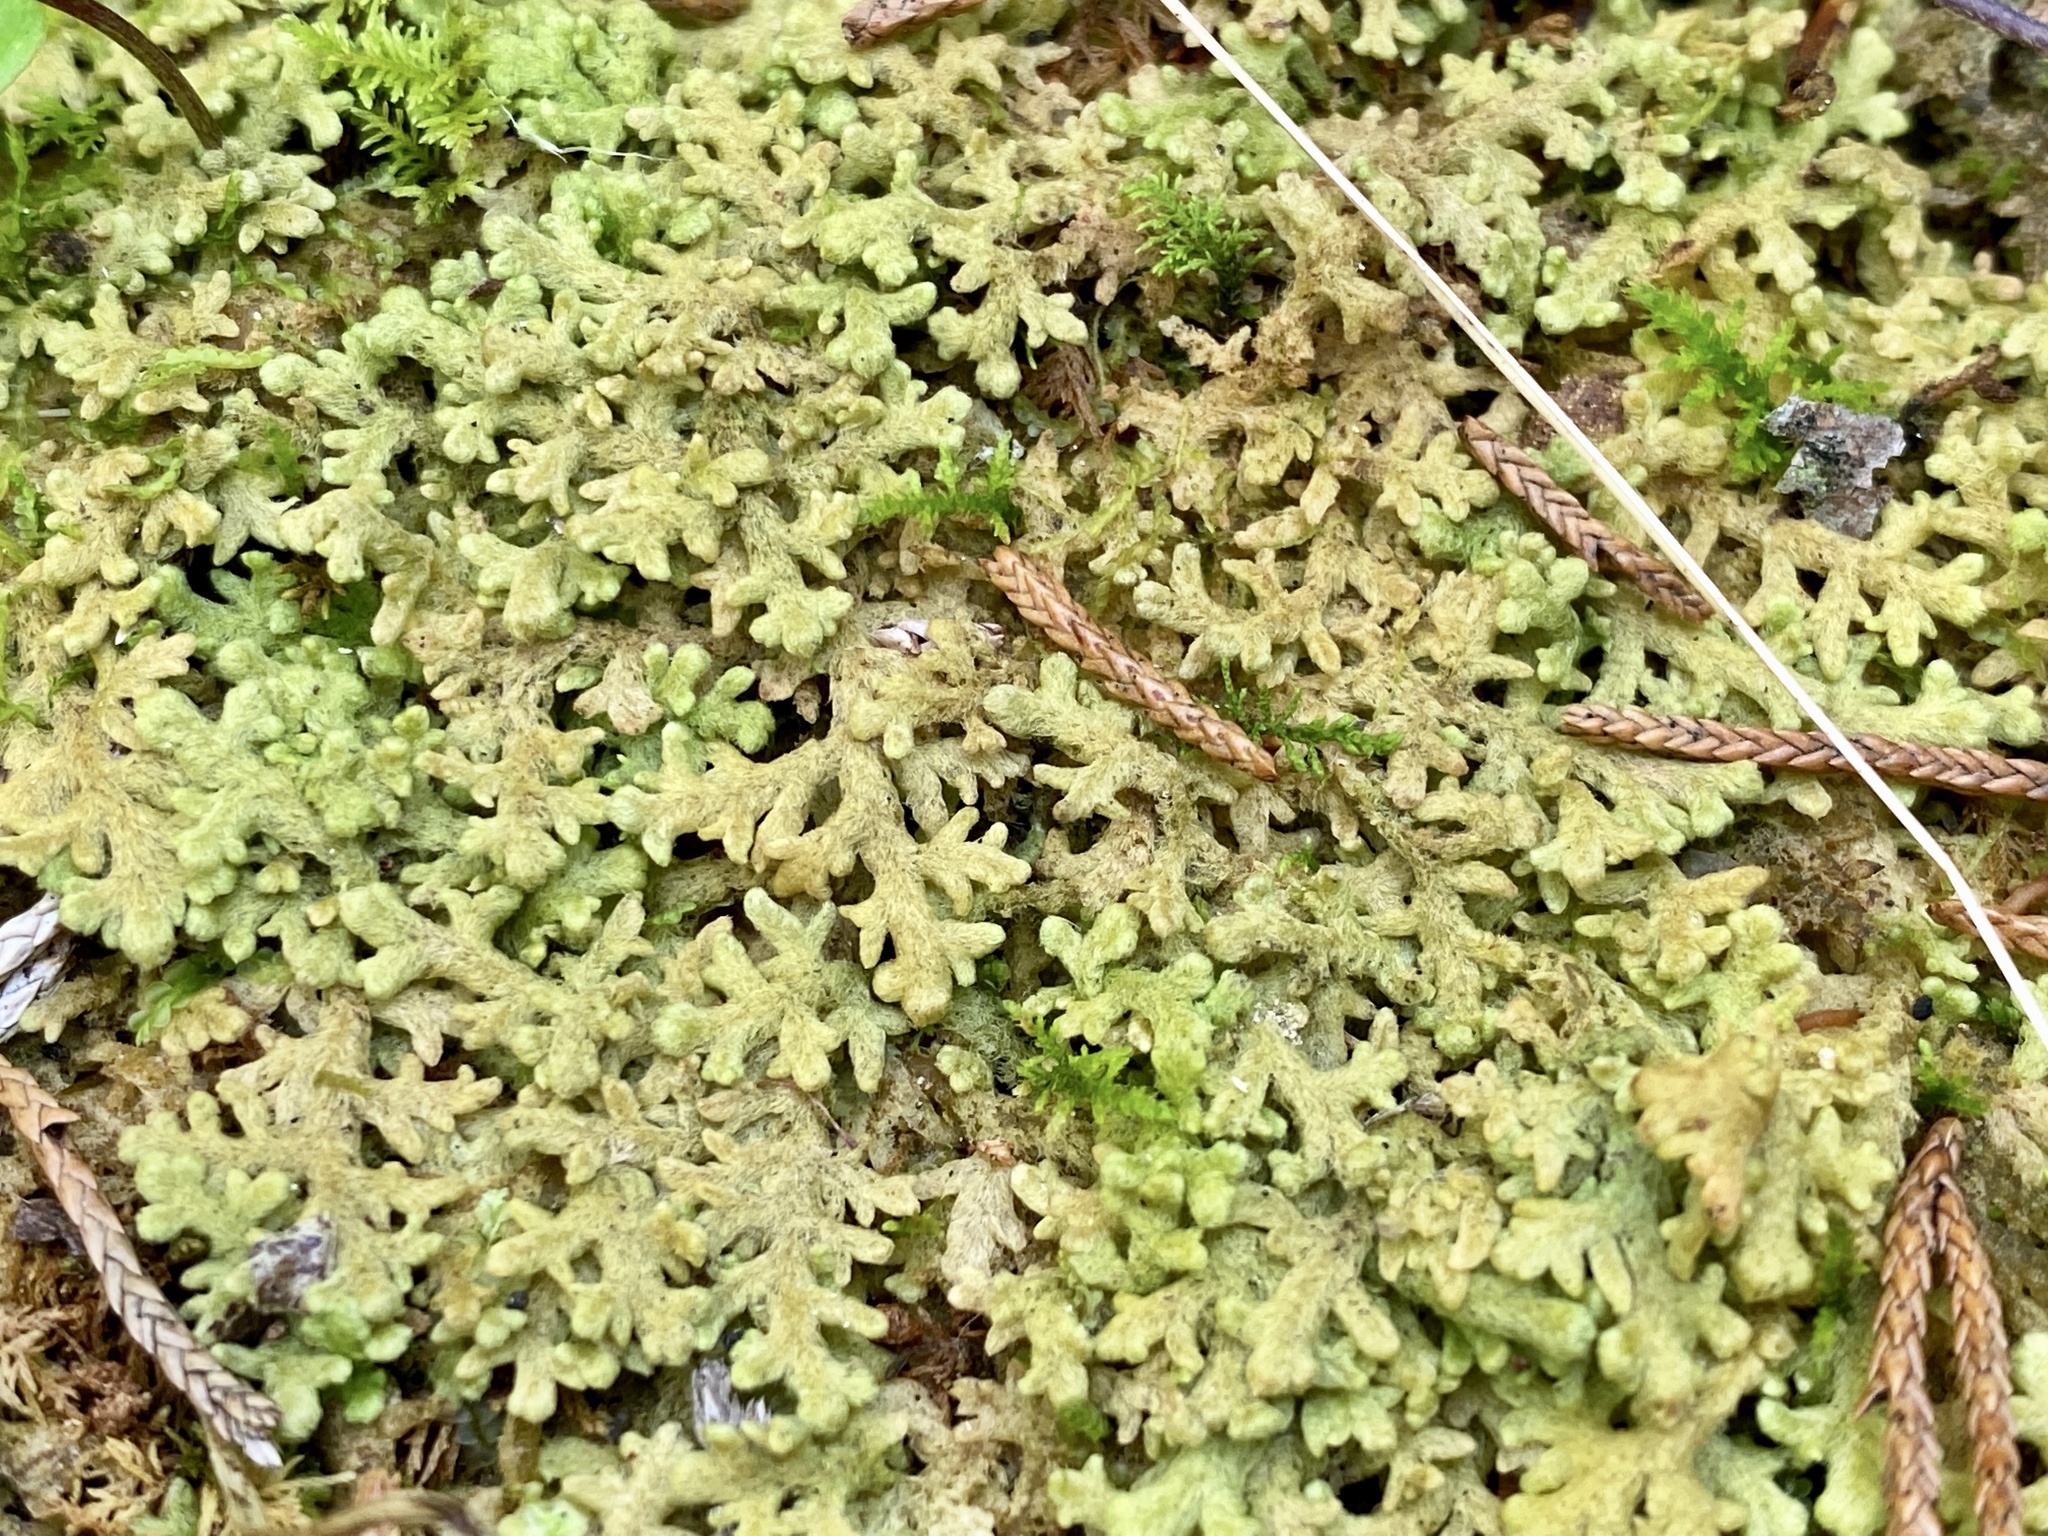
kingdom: Plantae
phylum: Marchantiophyta
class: Jungermanniopsida
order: Jungermanniales
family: Trichocoleaceae
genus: Trichocolea
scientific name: Trichocolea tomentella
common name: Woolly liverwort
